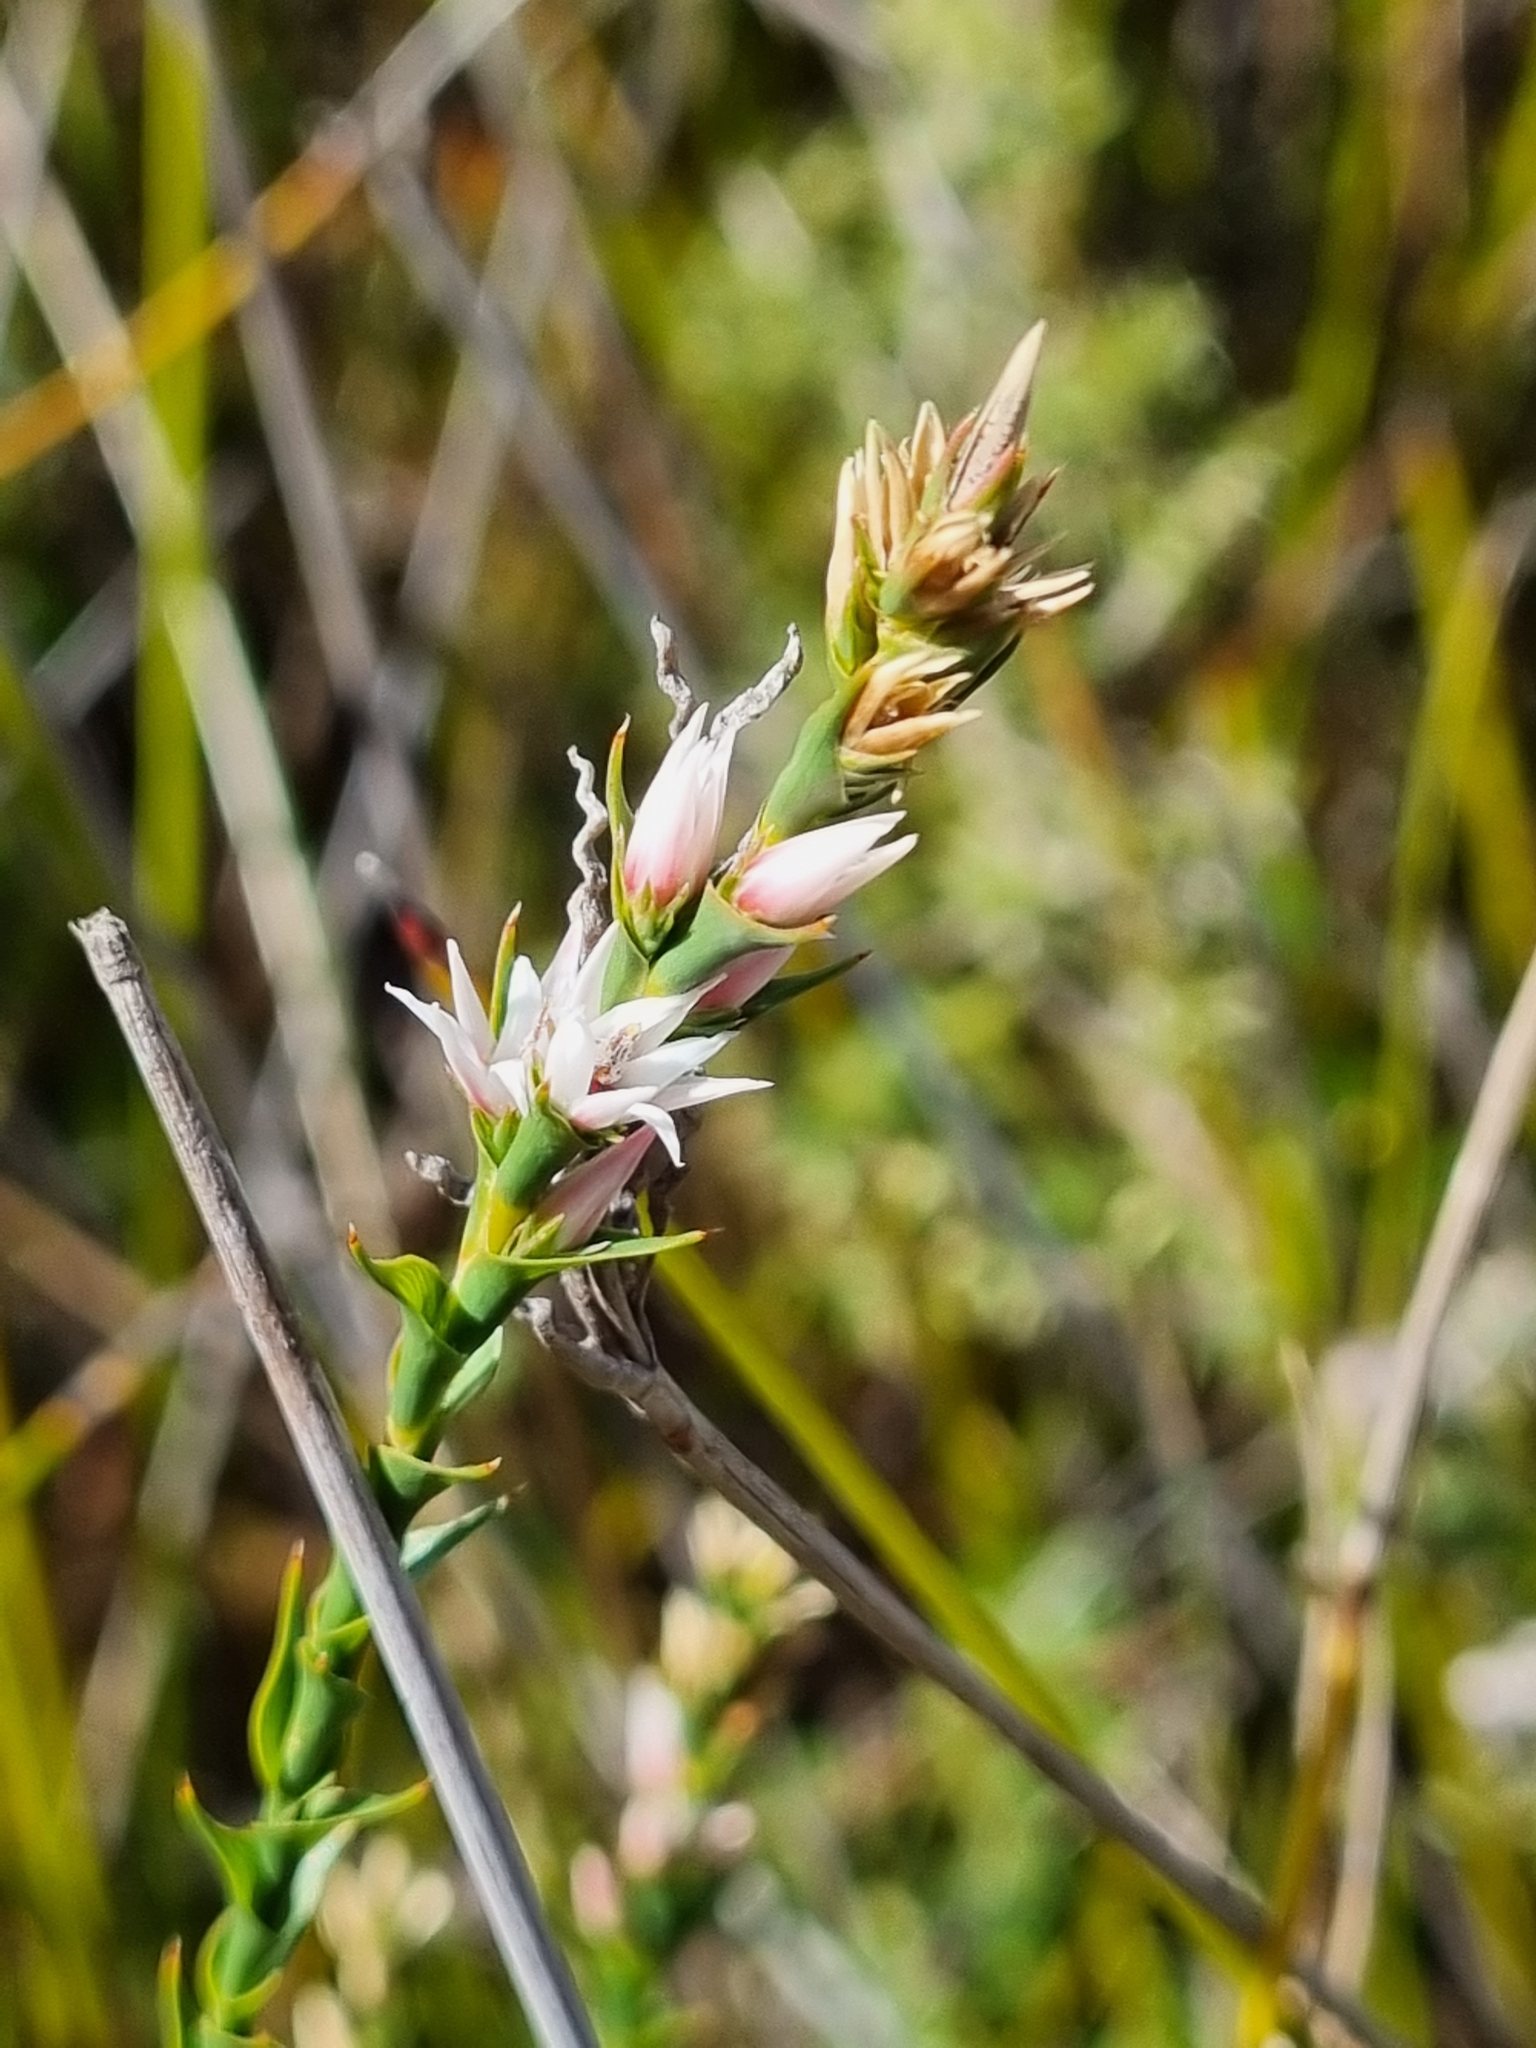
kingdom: Plantae
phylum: Tracheophyta
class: Magnoliopsida
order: Ericales
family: Ericaceae
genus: Sprengelia
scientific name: Sprengelia incarnata
